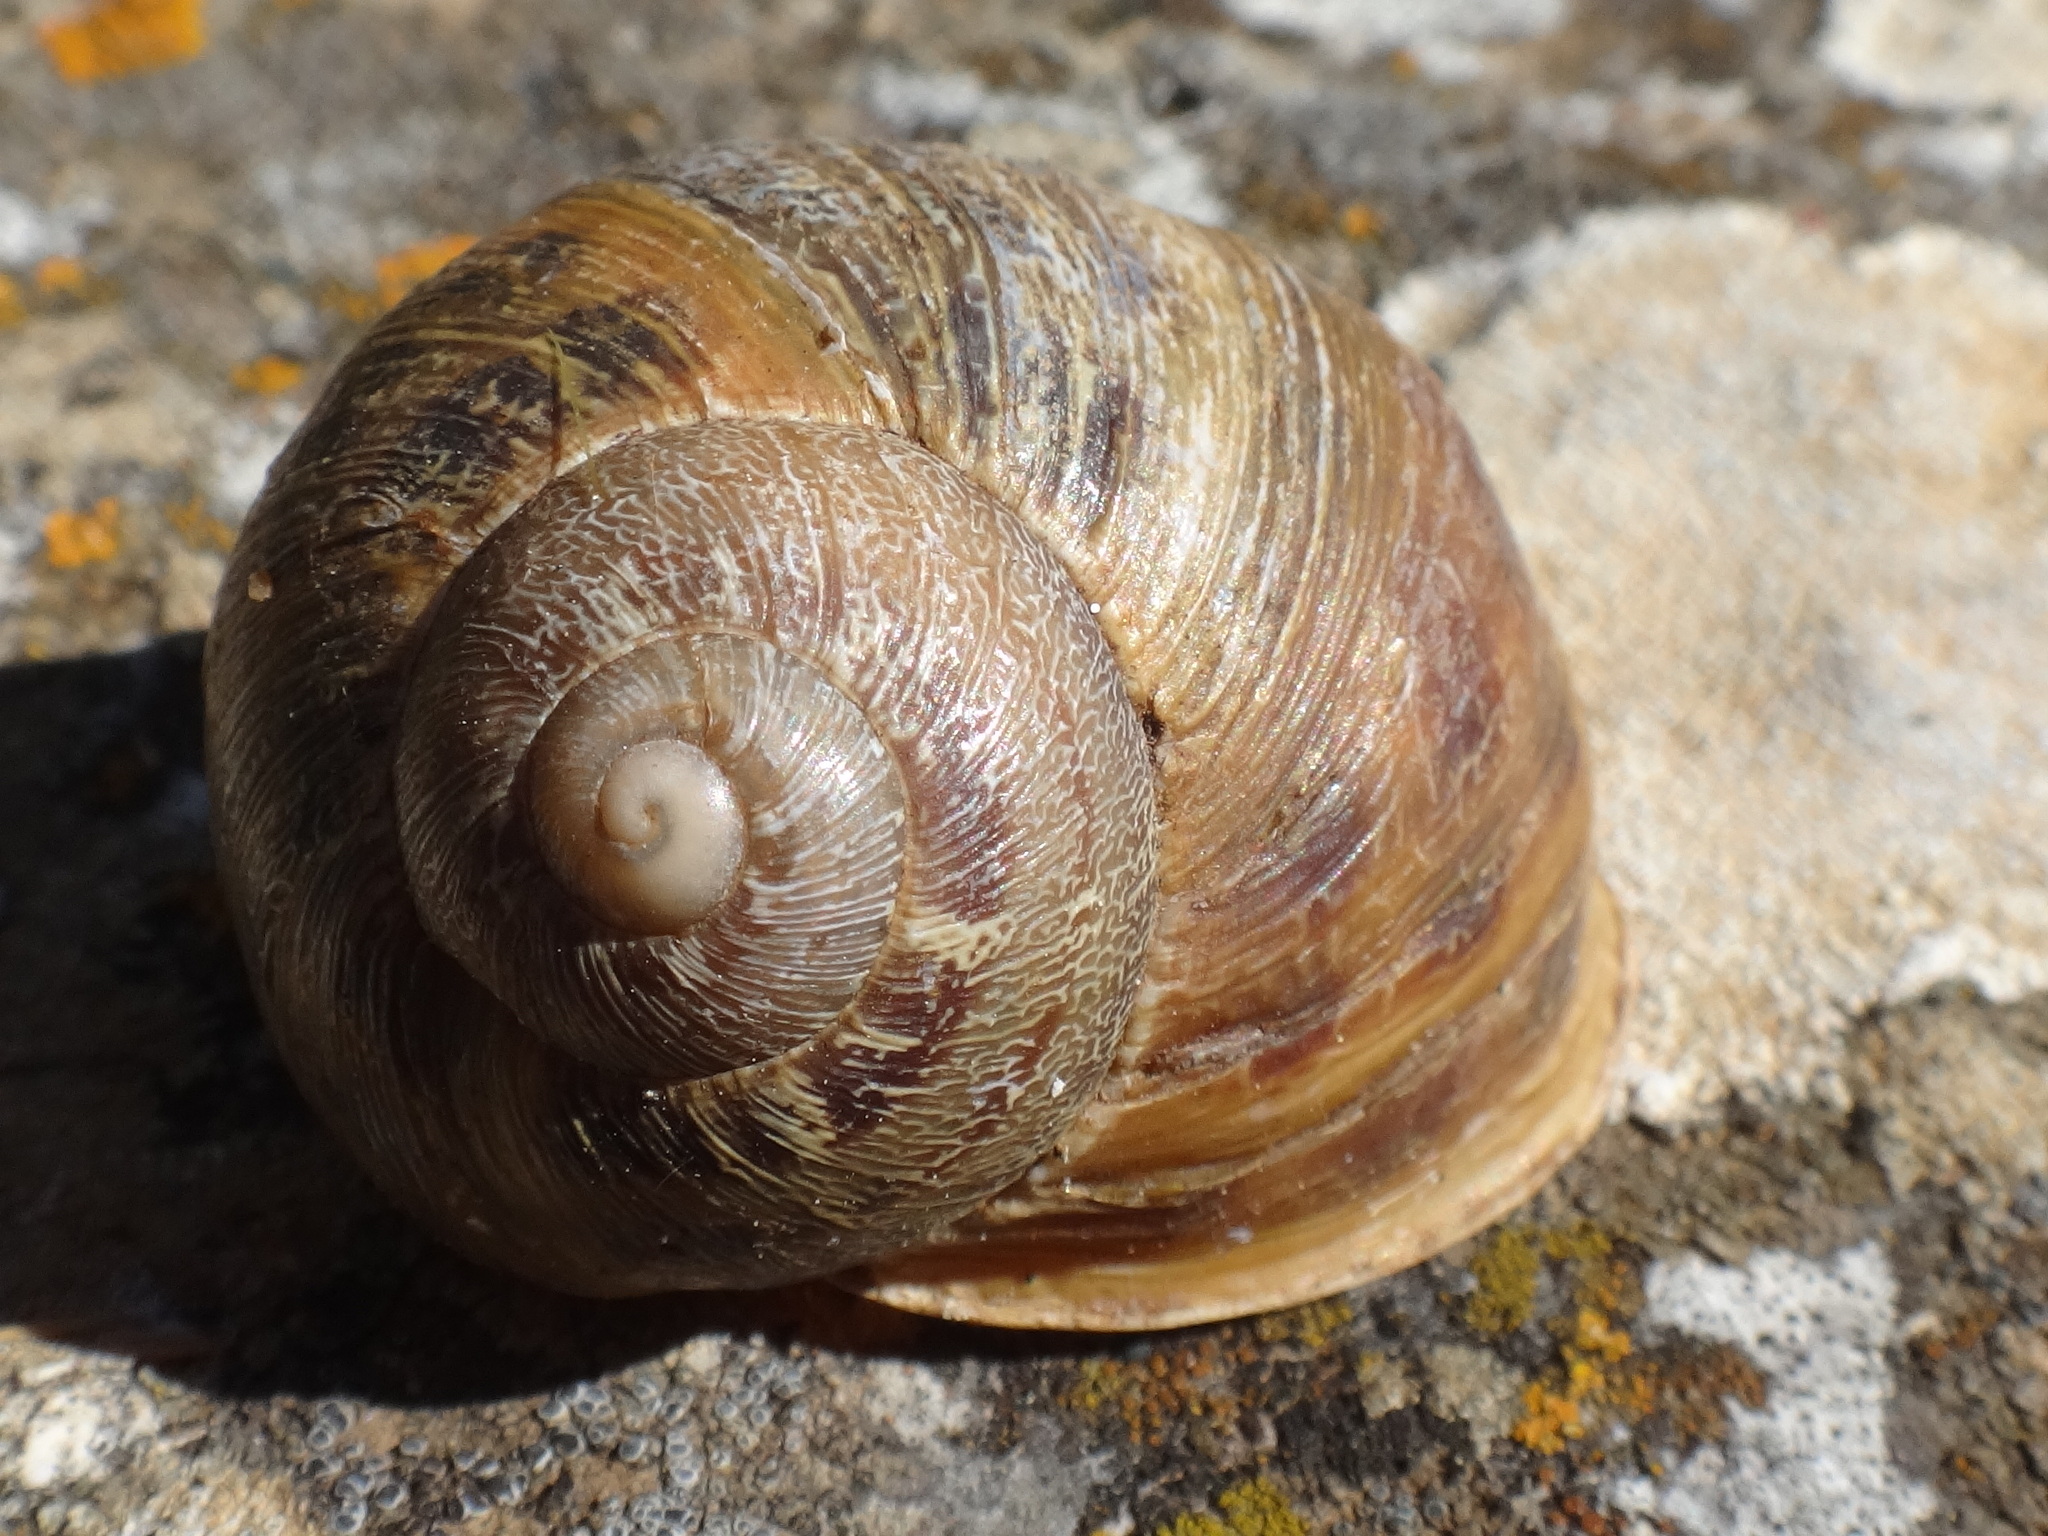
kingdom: Animalia
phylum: Mollusca
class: Gastropoda
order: Stylommatophora
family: Helicidae
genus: Cornu
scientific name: Cornu aspersum
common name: Brown garden snail
